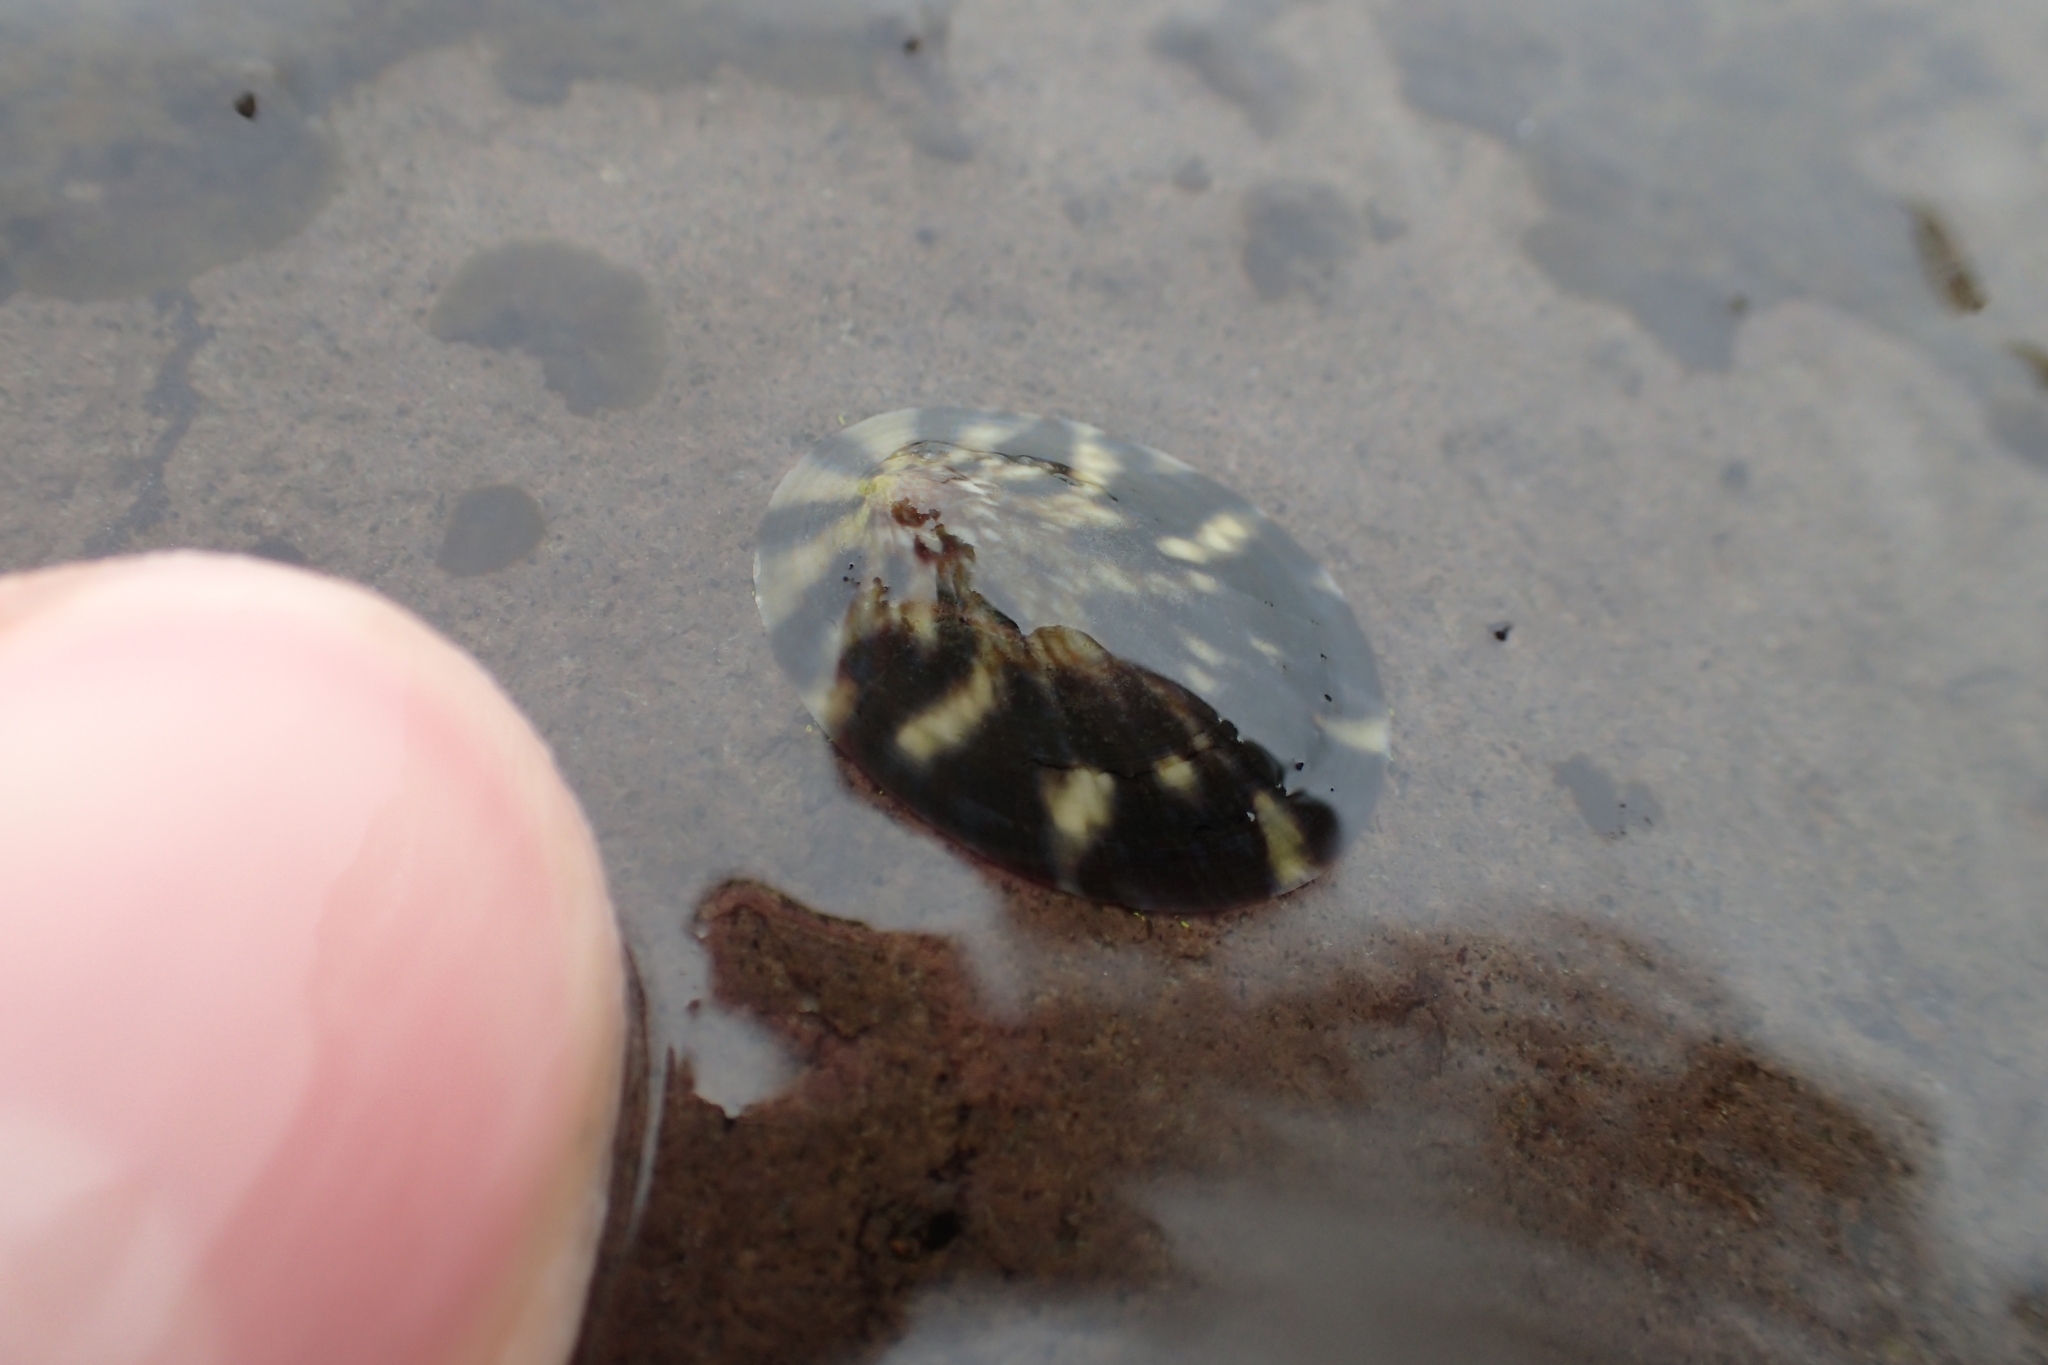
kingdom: Animalia
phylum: Mollusca
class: Gastropoda
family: Nacellidae
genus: Cellana
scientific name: Cellana radians
